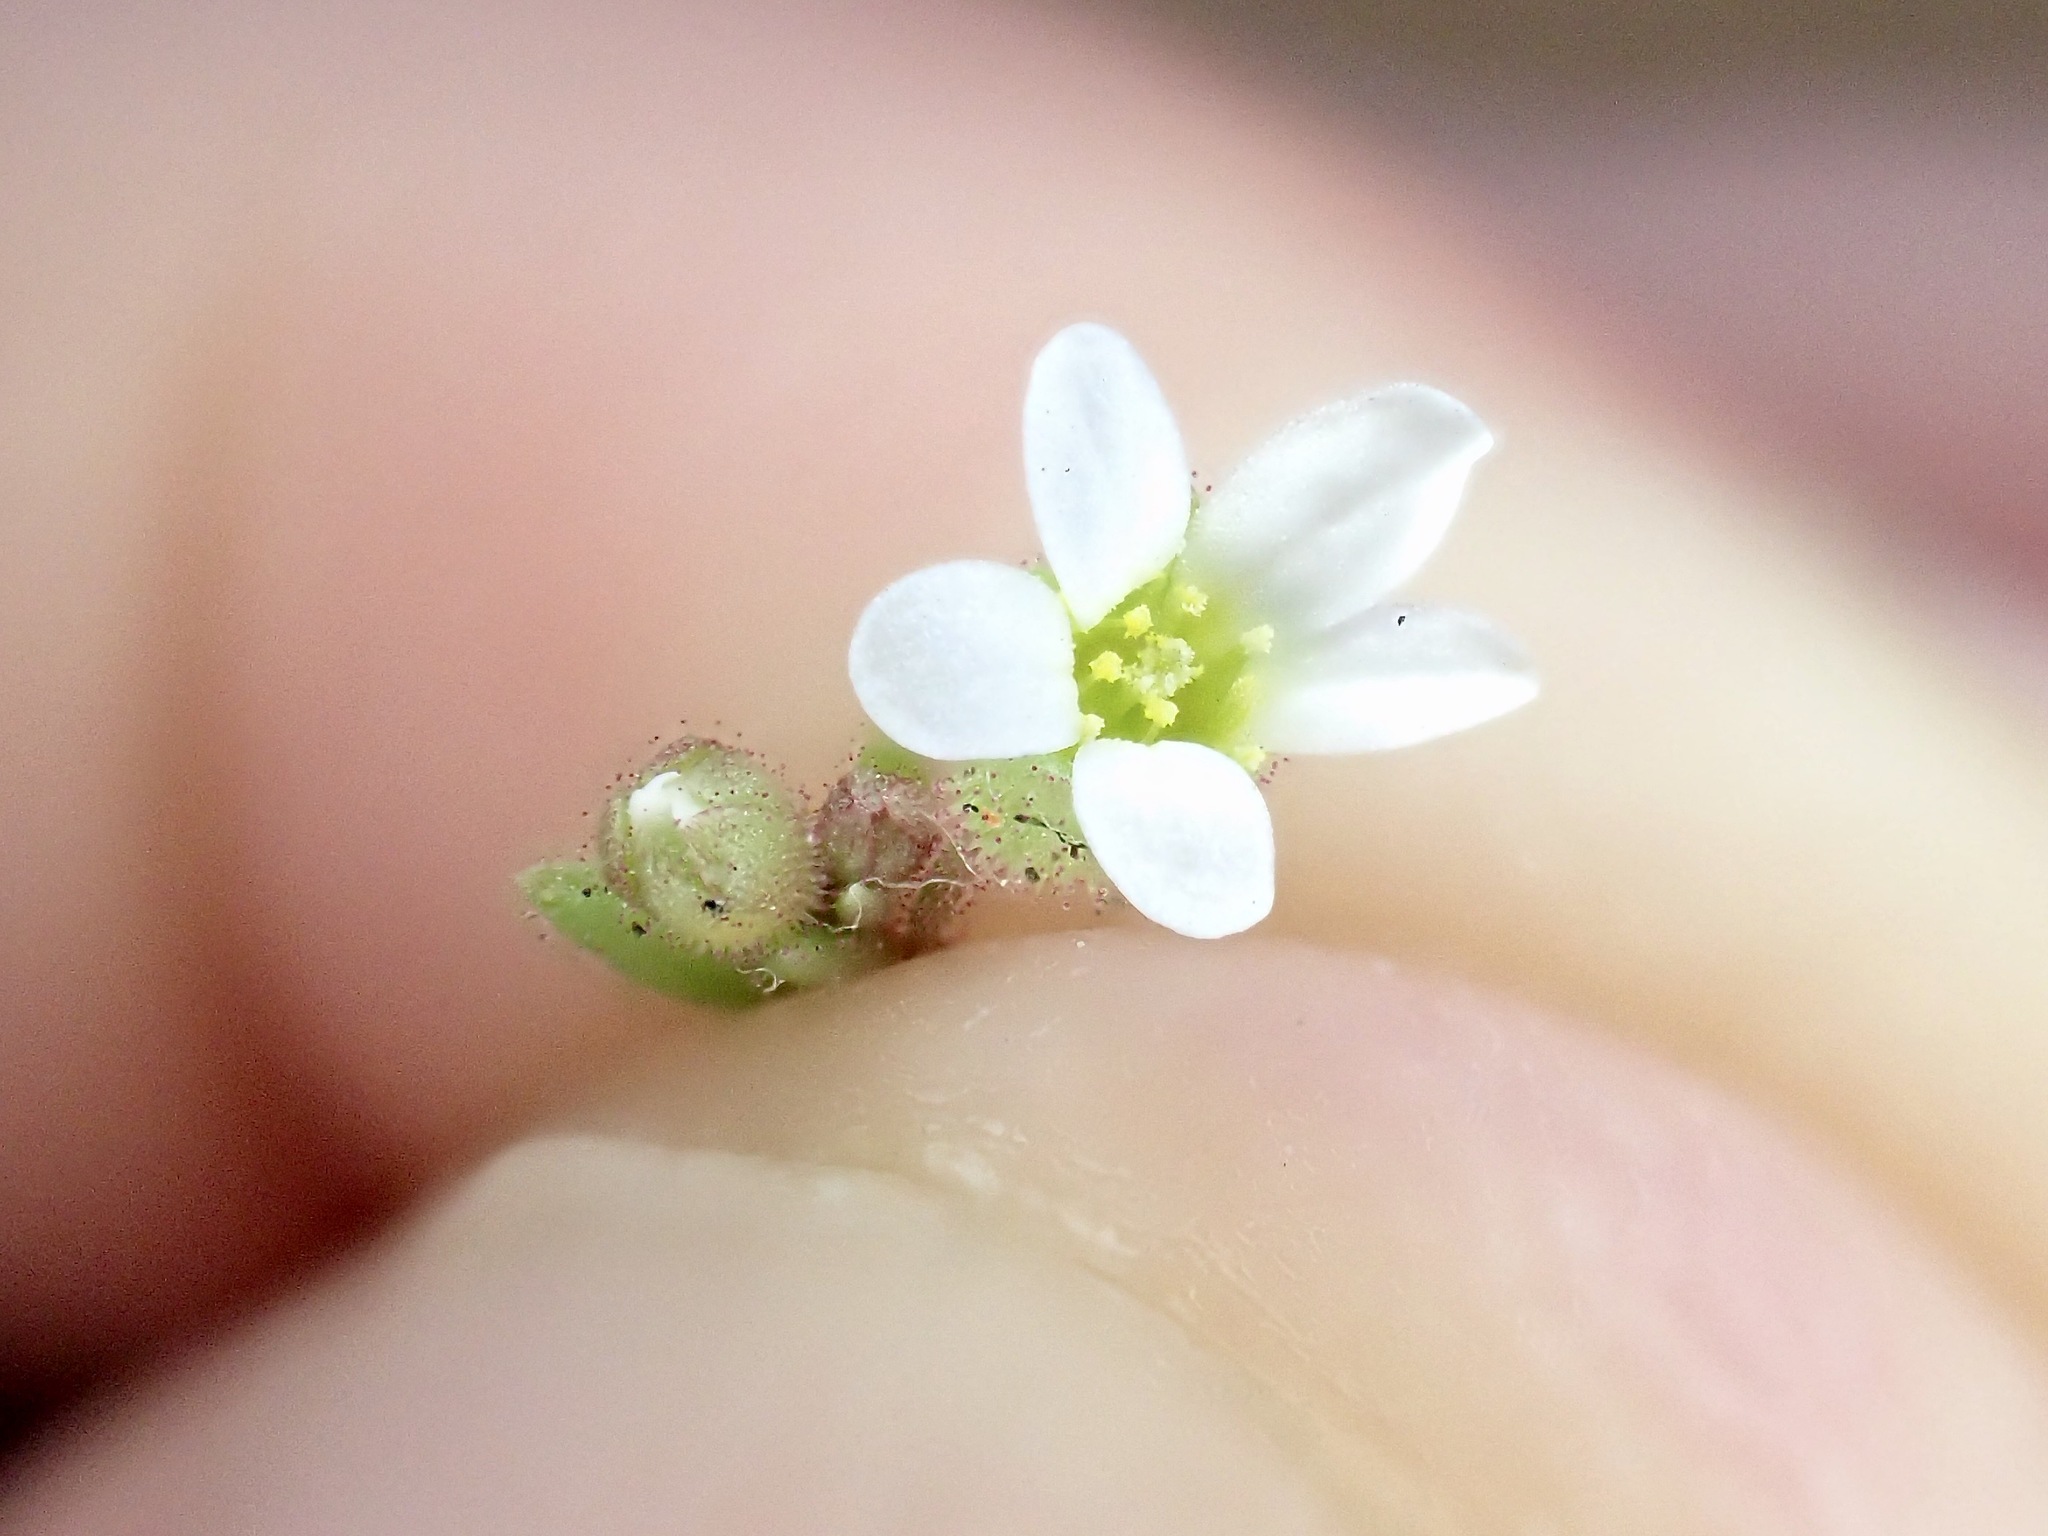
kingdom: Plantae
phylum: Tracheophyta
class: Magnoliopsida
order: Saxifragales
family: Saxifragaceae
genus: Saxifraga
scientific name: Saxifraga tridactylites
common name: Rue-leaved saxifrage
